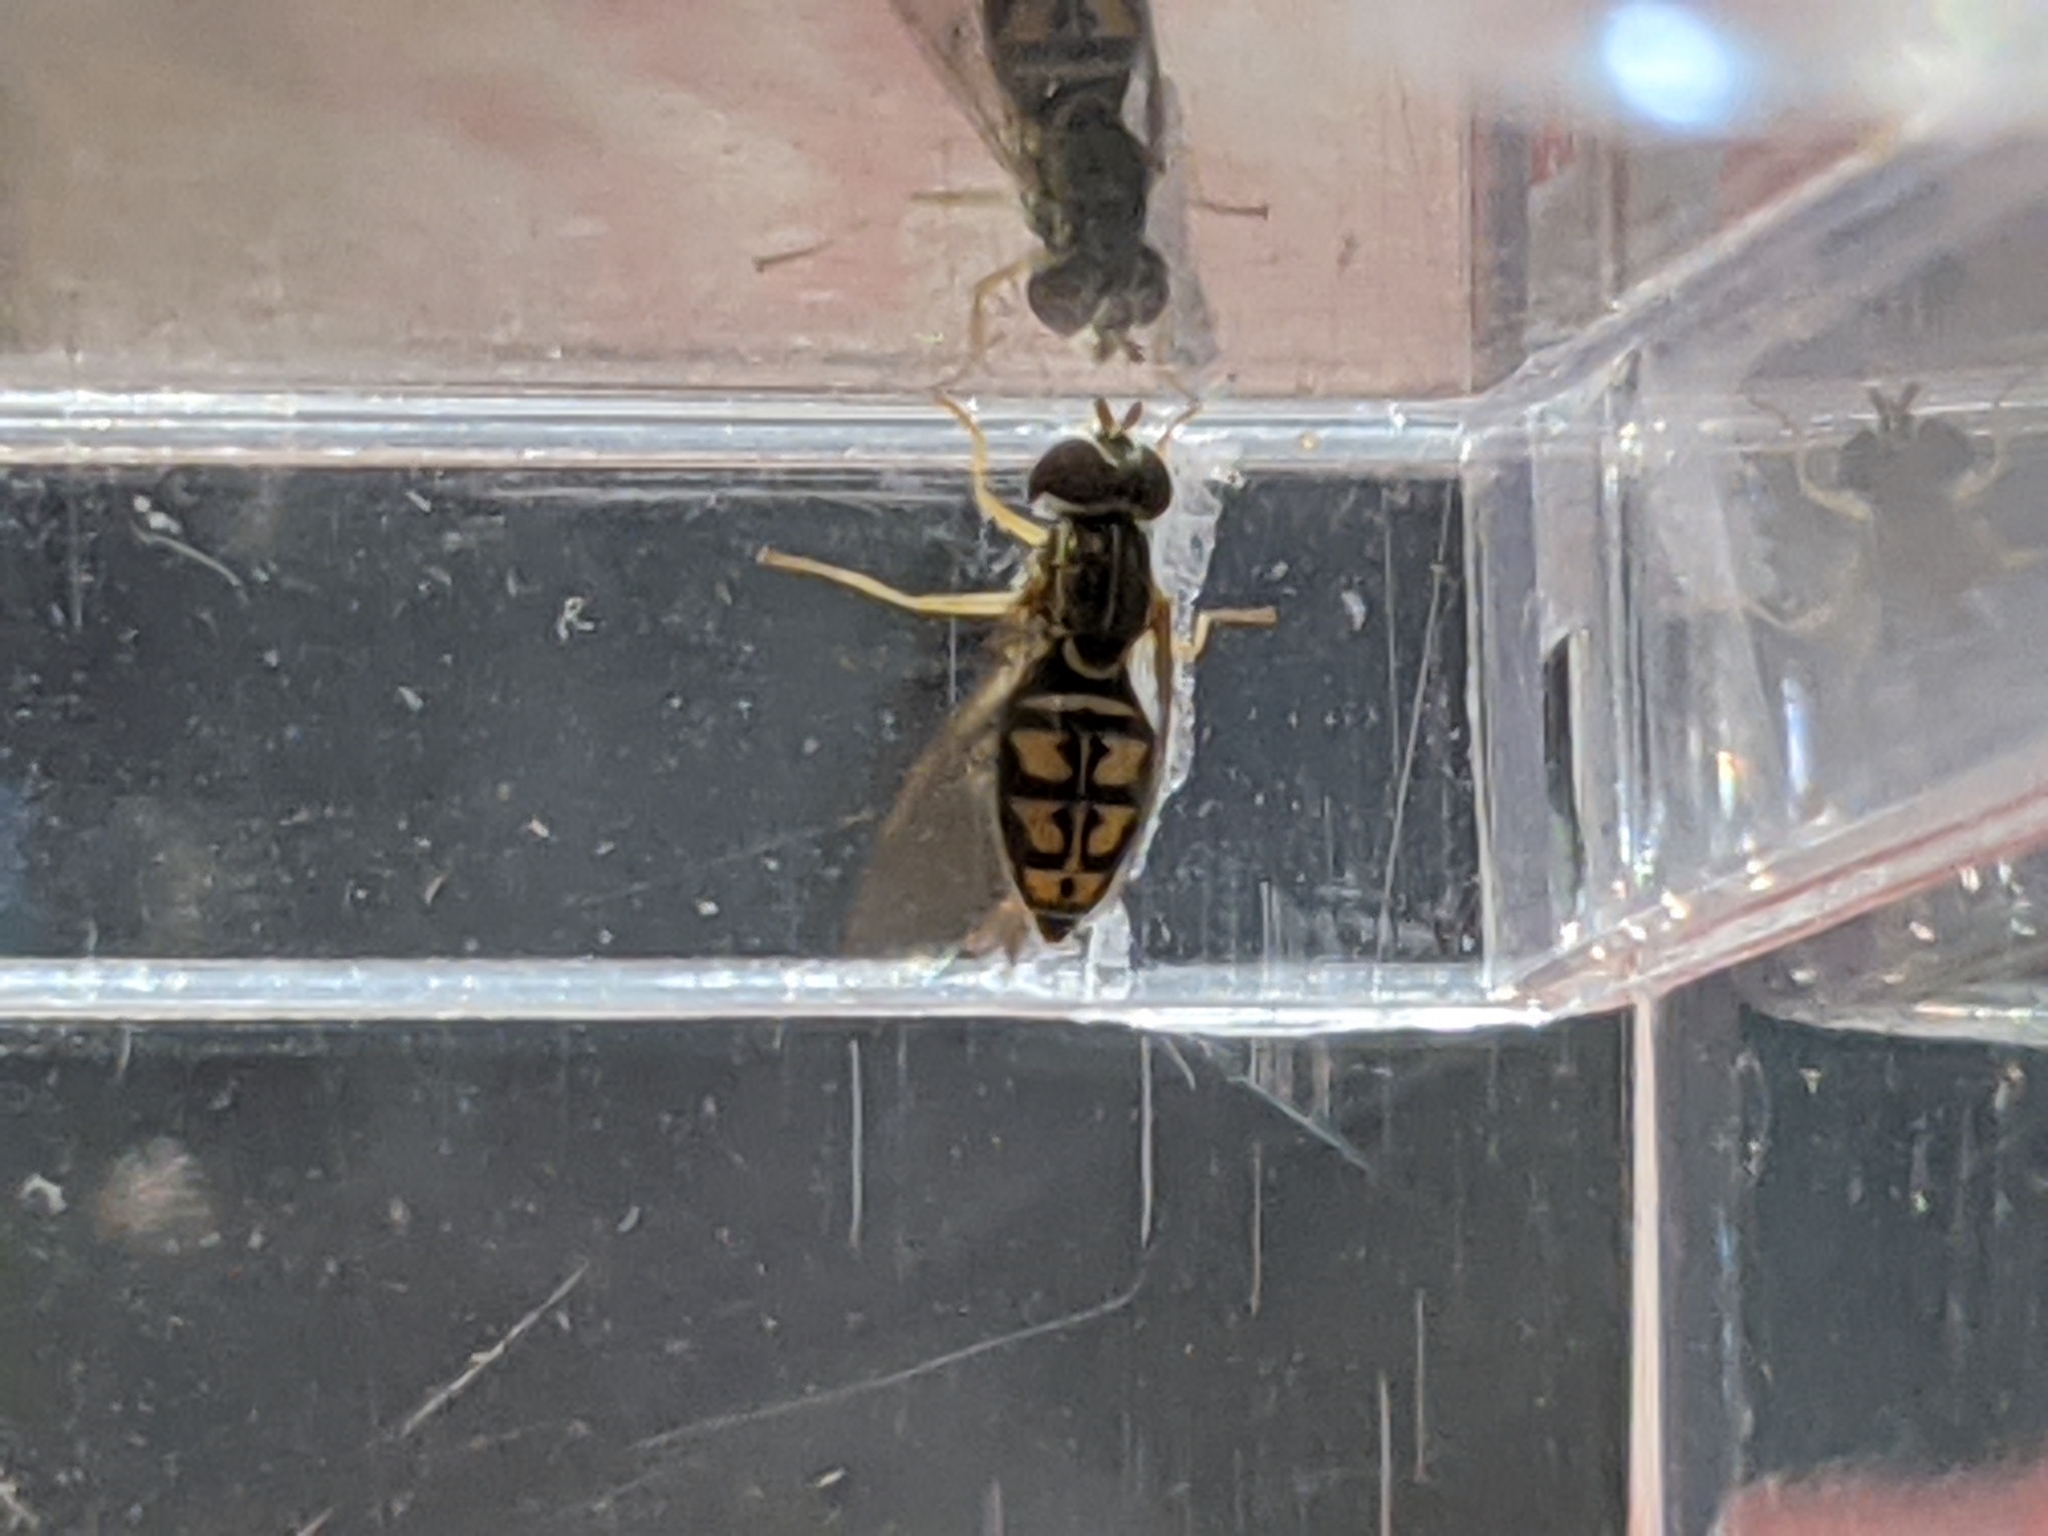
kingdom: Animalia
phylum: Arthropoda
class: Insecta
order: Diptera
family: Syrphidae
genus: Toxomerus
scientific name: Toxomerus marginatus
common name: Syrphid fly
